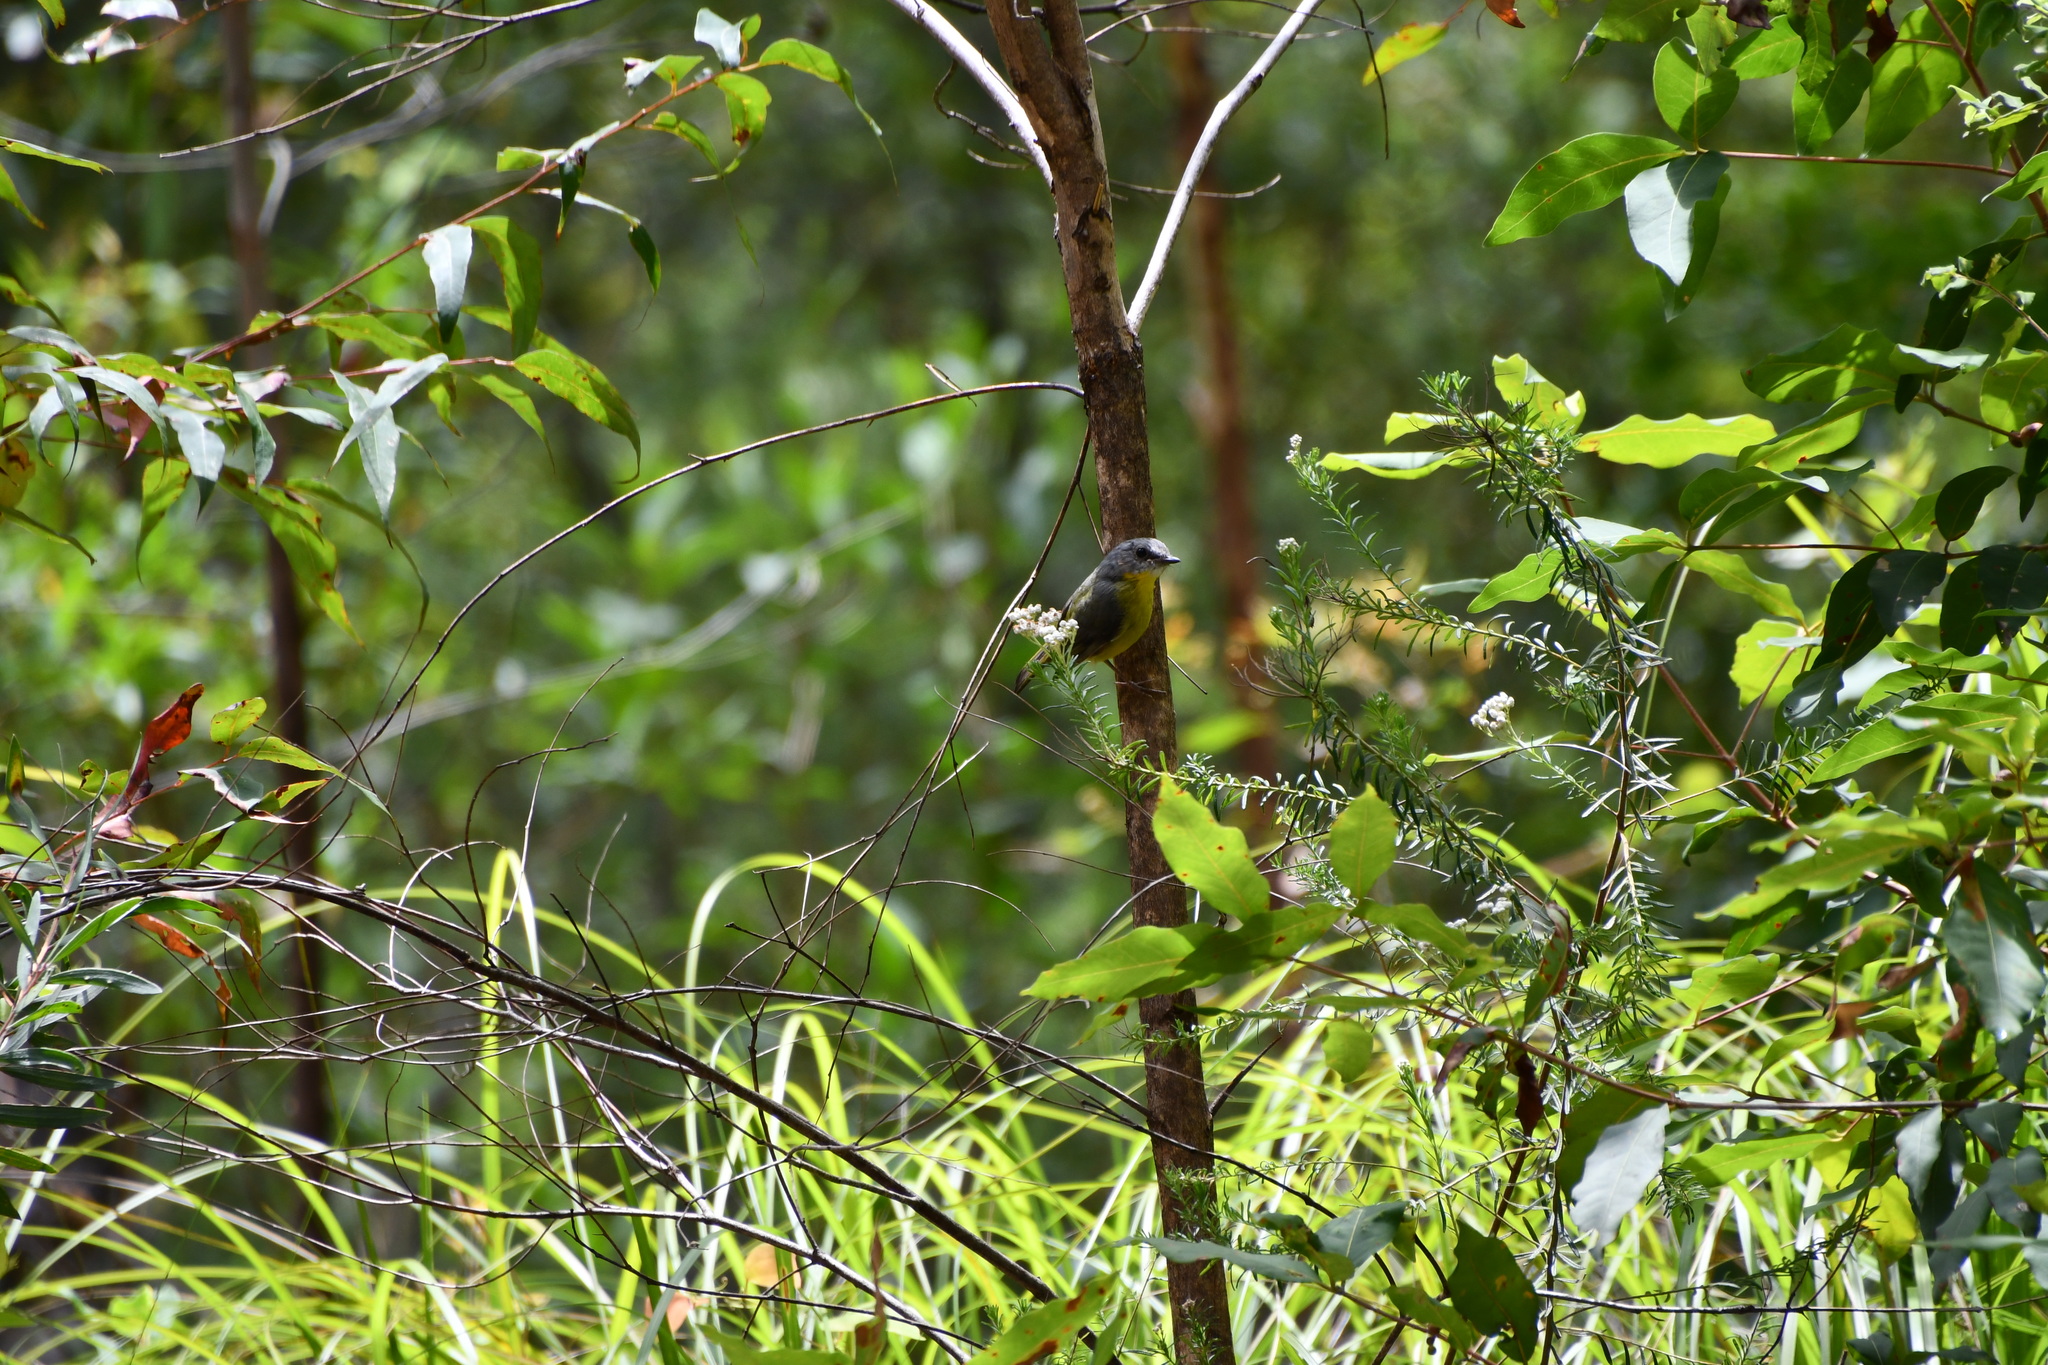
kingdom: Animalia
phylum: Chordata
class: Aves
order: Passeriformes
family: Petroicidae
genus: Eopsaltria
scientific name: Eopsaltria australis
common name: Eastern yellow robin
